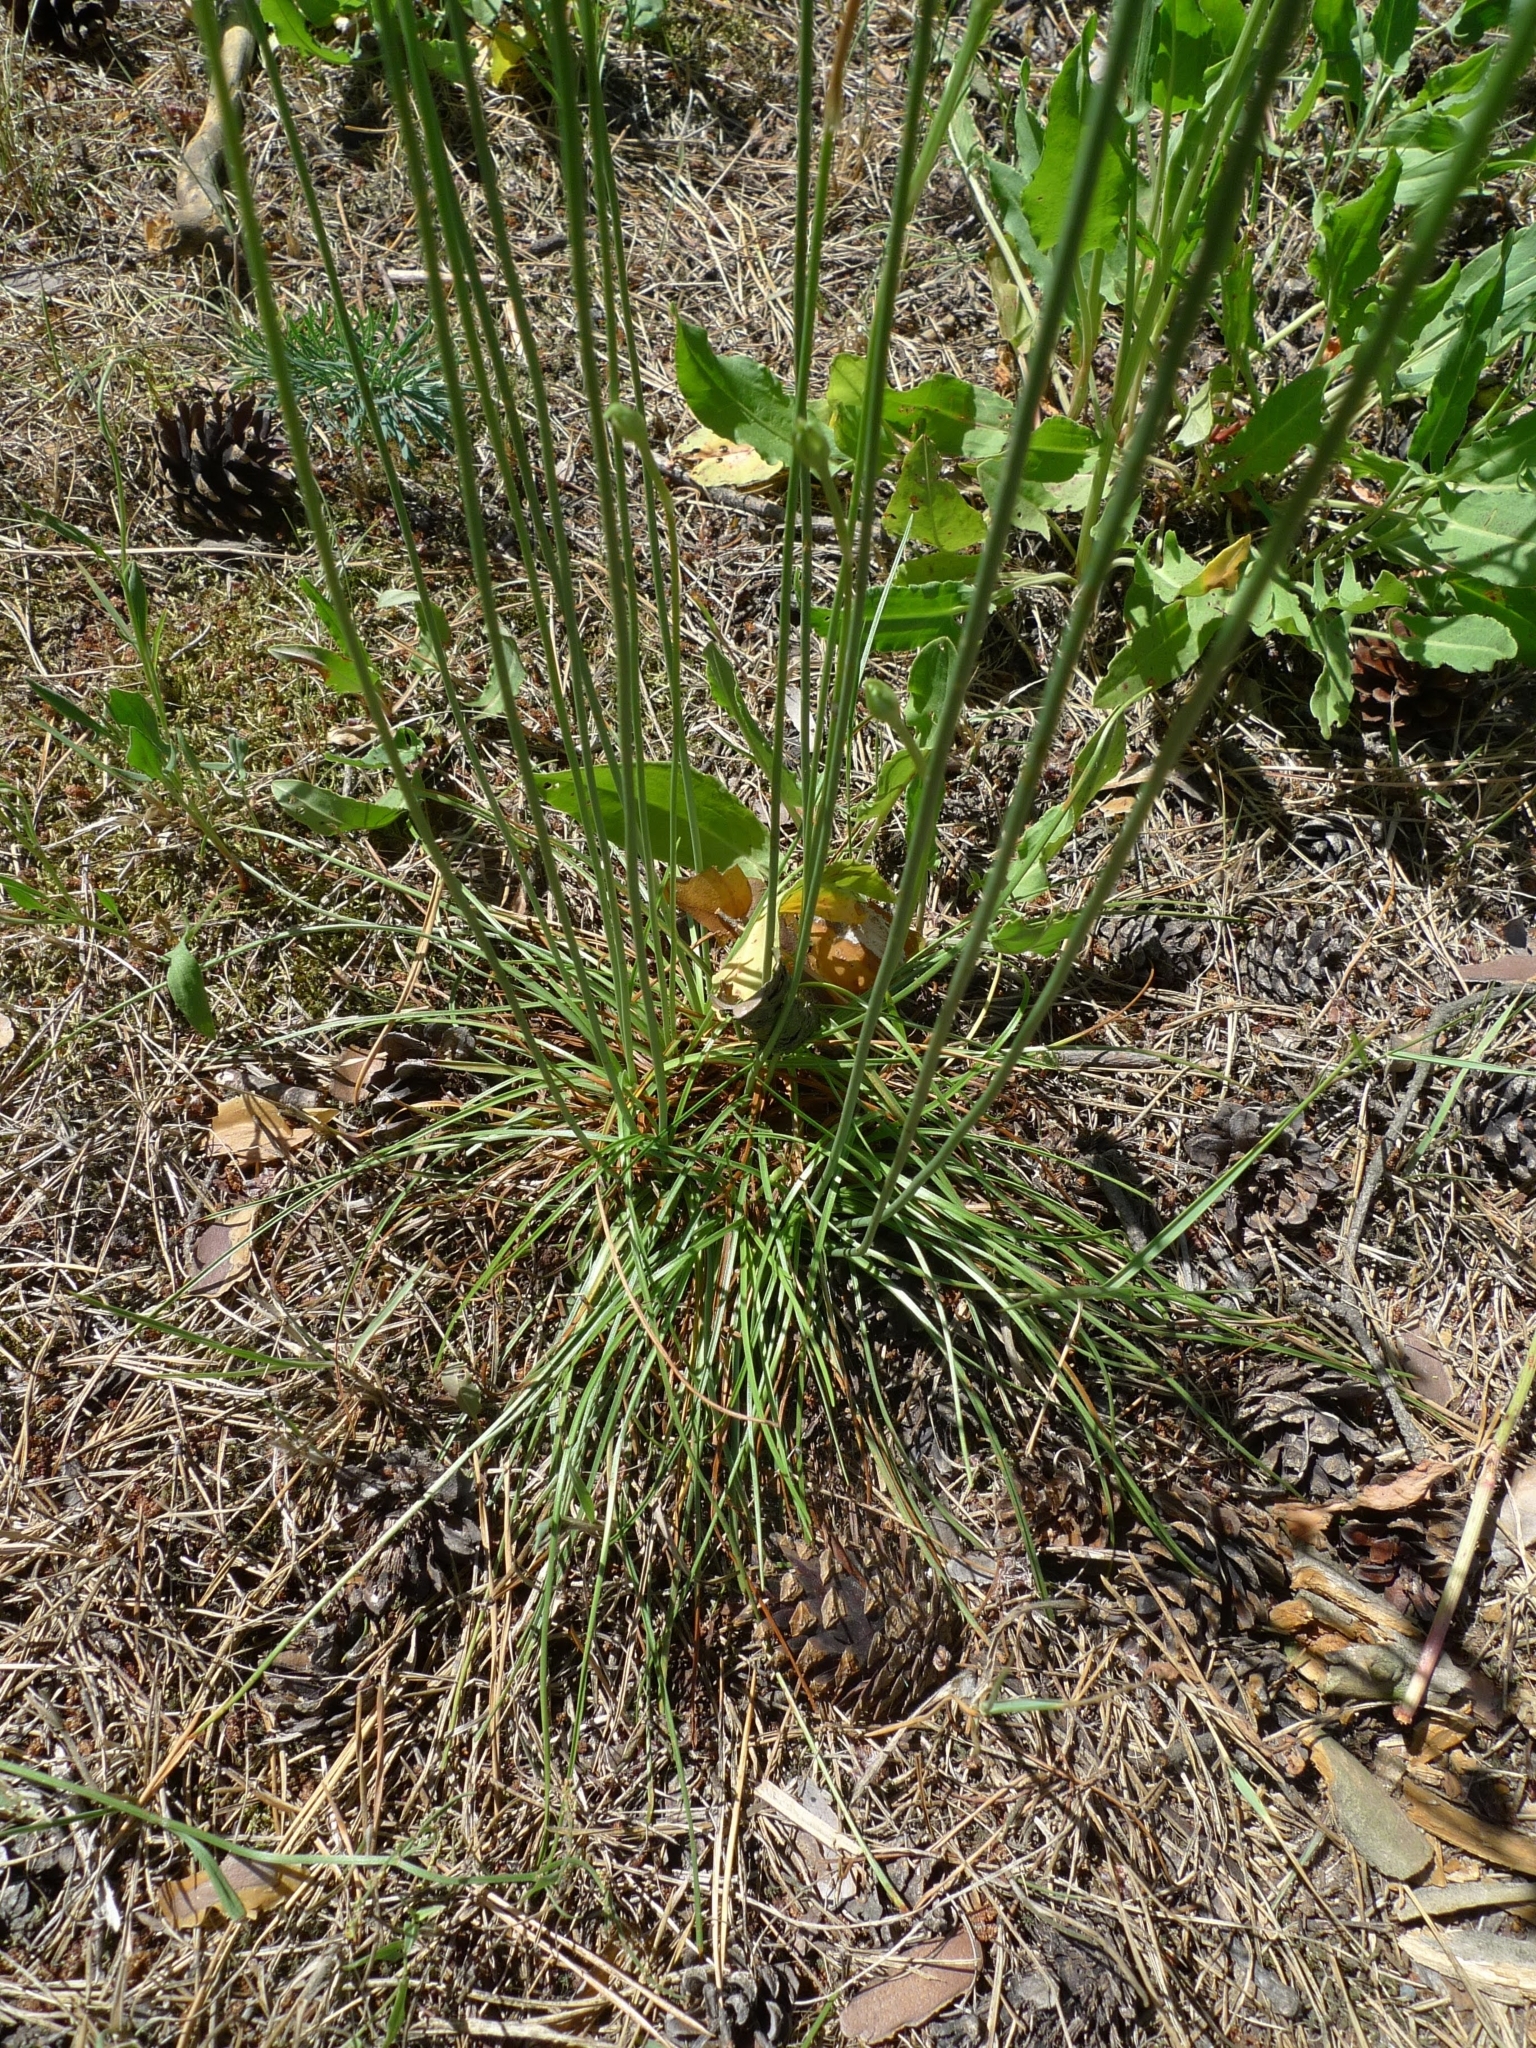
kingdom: Plantae
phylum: Tracheophyta
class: Magnoliopsida
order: Caryophyllales
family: Plumbaginaceae
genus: Armeria
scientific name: Armeria maritima
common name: Thrift
